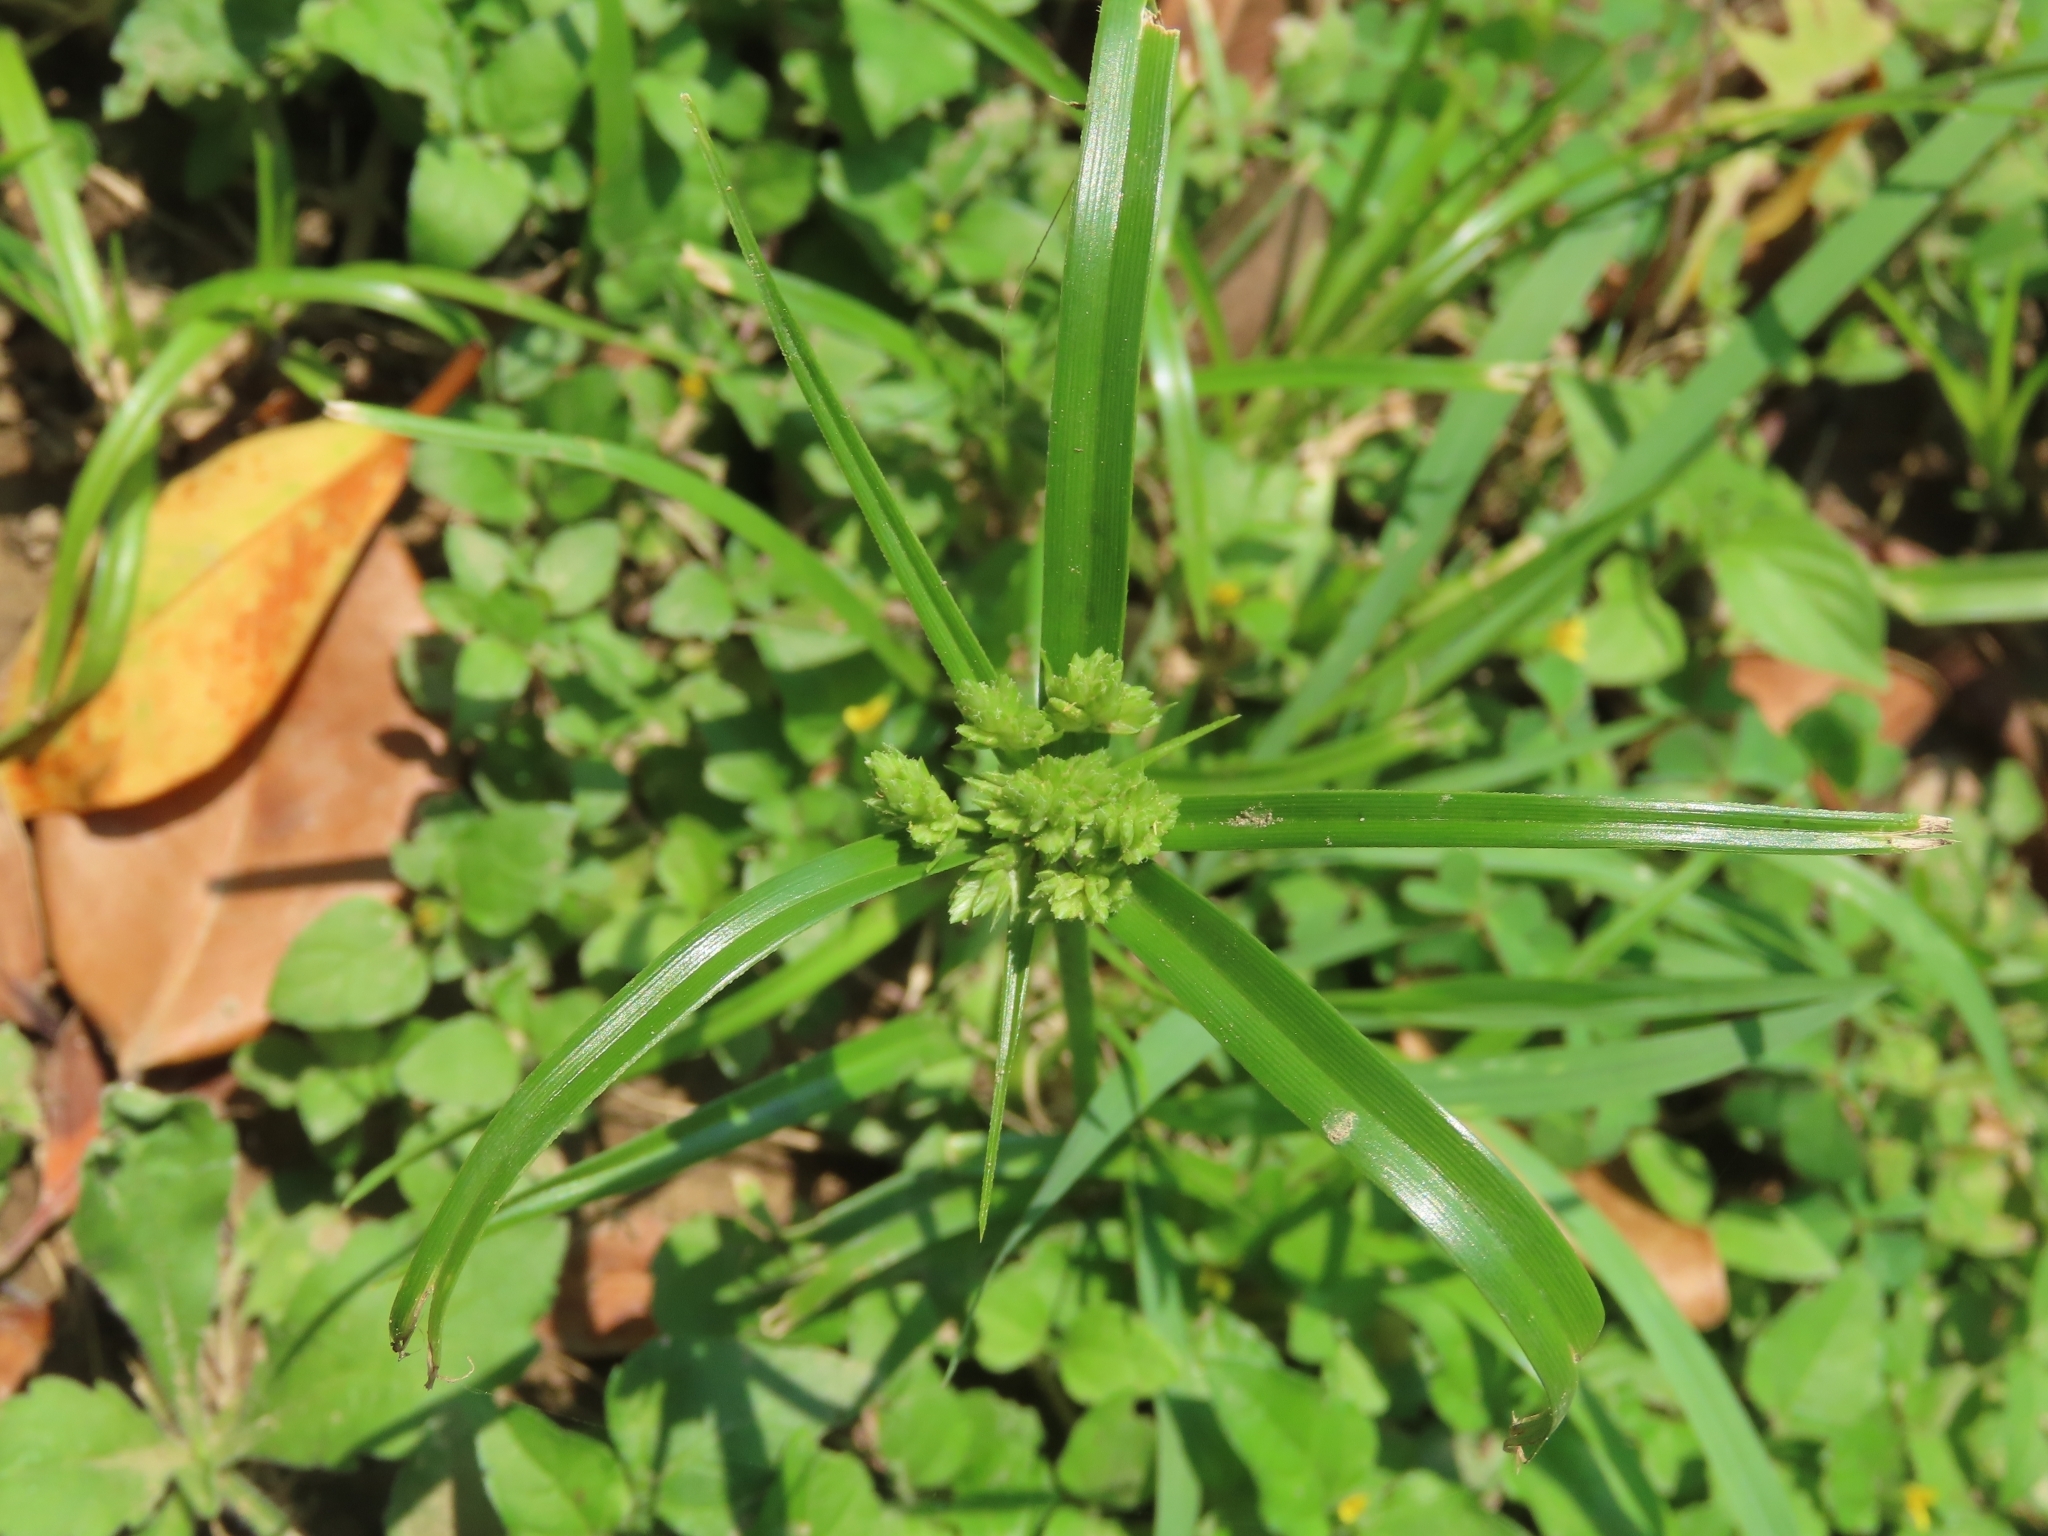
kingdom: Plantae
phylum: Tracheophyta
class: Liliopsida
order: Poales
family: Cyperaceae
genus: Cyperus
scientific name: Cyperus eragrostis
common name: Tall flatsedge
